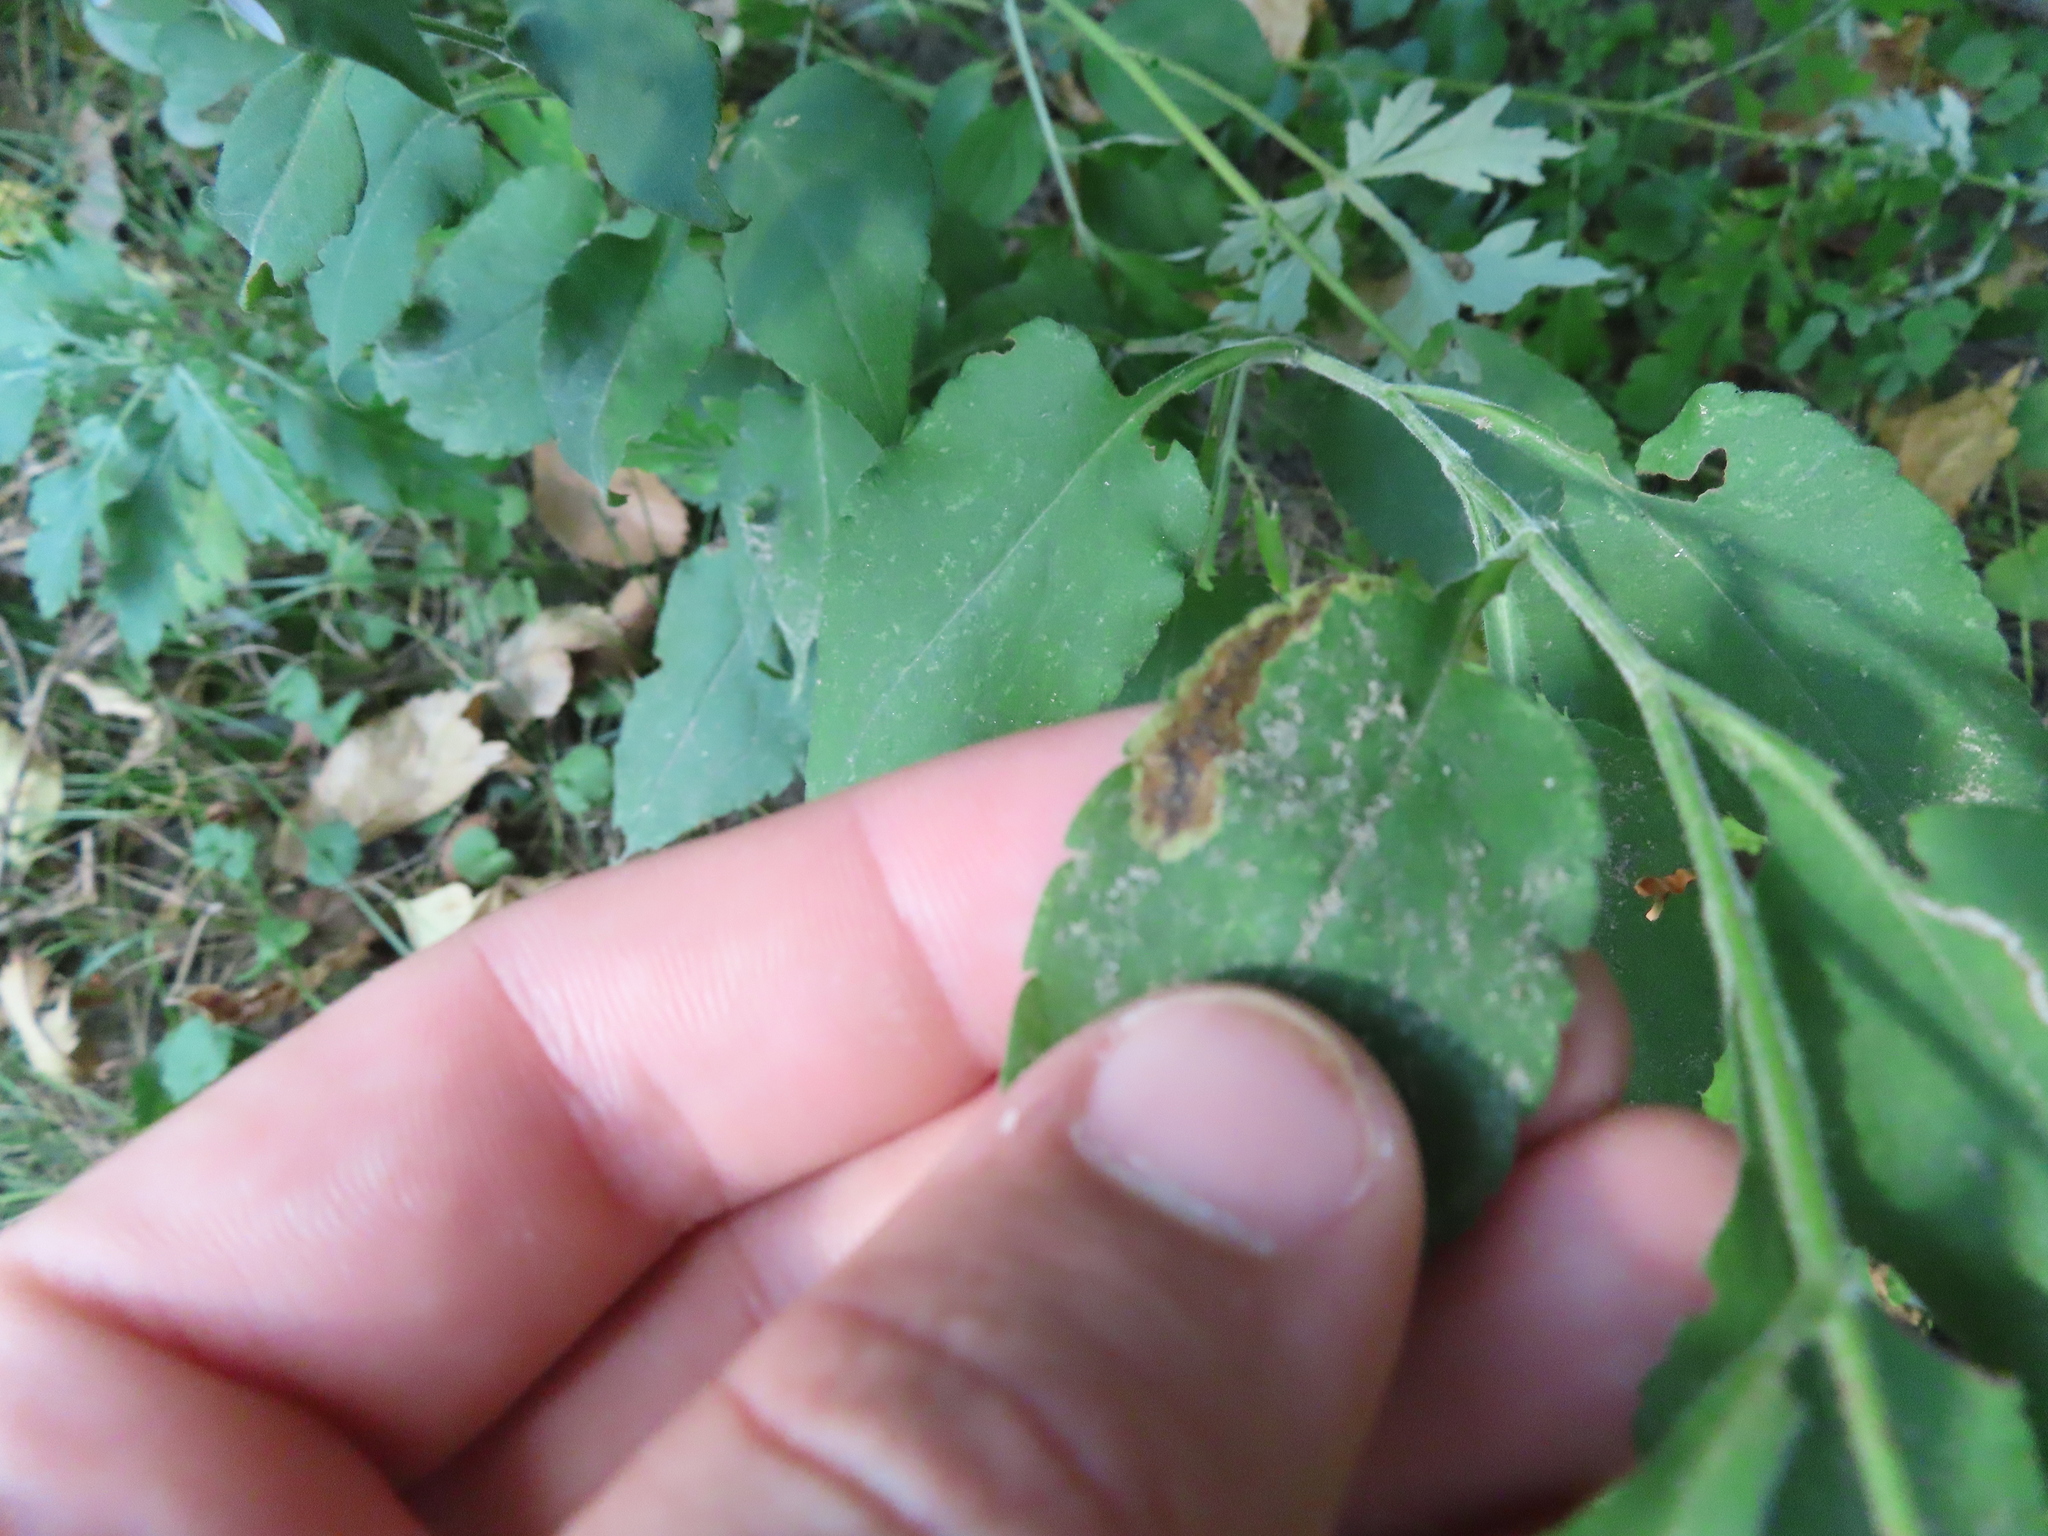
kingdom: Animalia
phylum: Arthropoda
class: Insecta
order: Diptera
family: Agromyzidae
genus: Nemorimyza
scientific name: Nemorimyza posticata
